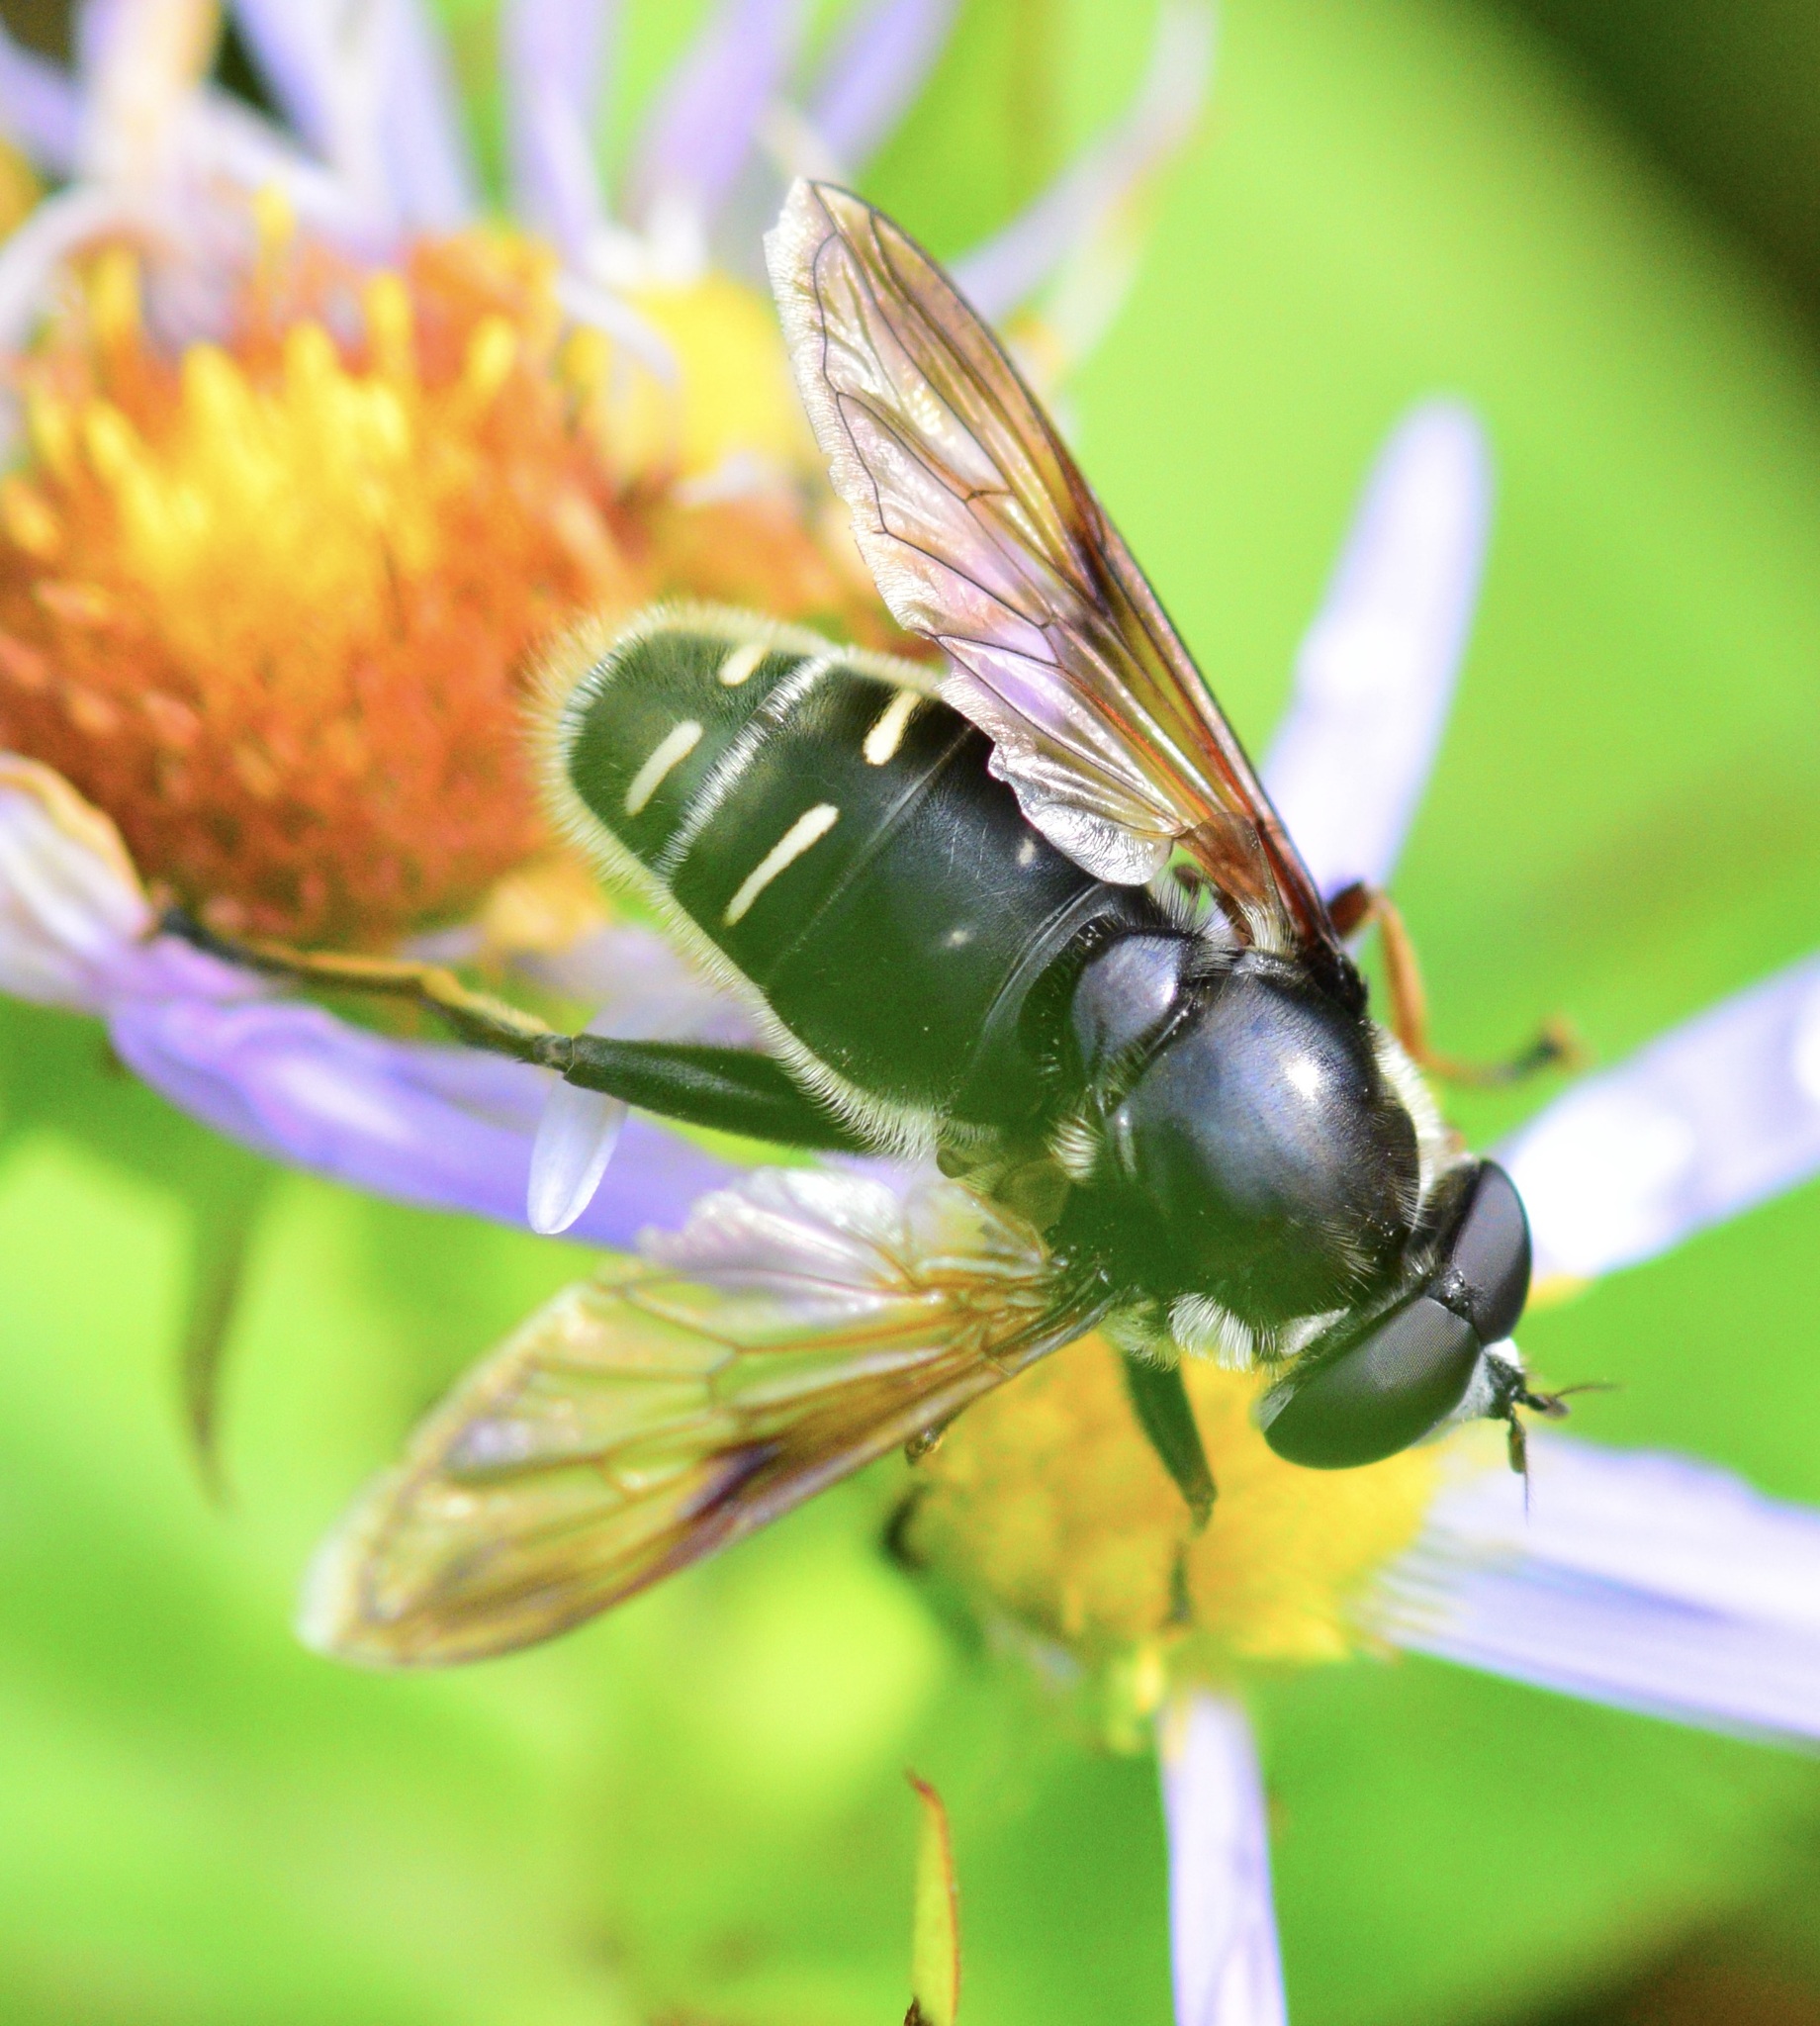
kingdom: Animalia
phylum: Arthropoda
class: Insecta
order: Diptera
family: Syrphidae
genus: Sericomyia
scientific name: Sericomyia militaris
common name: Narrow-banded pond fly
